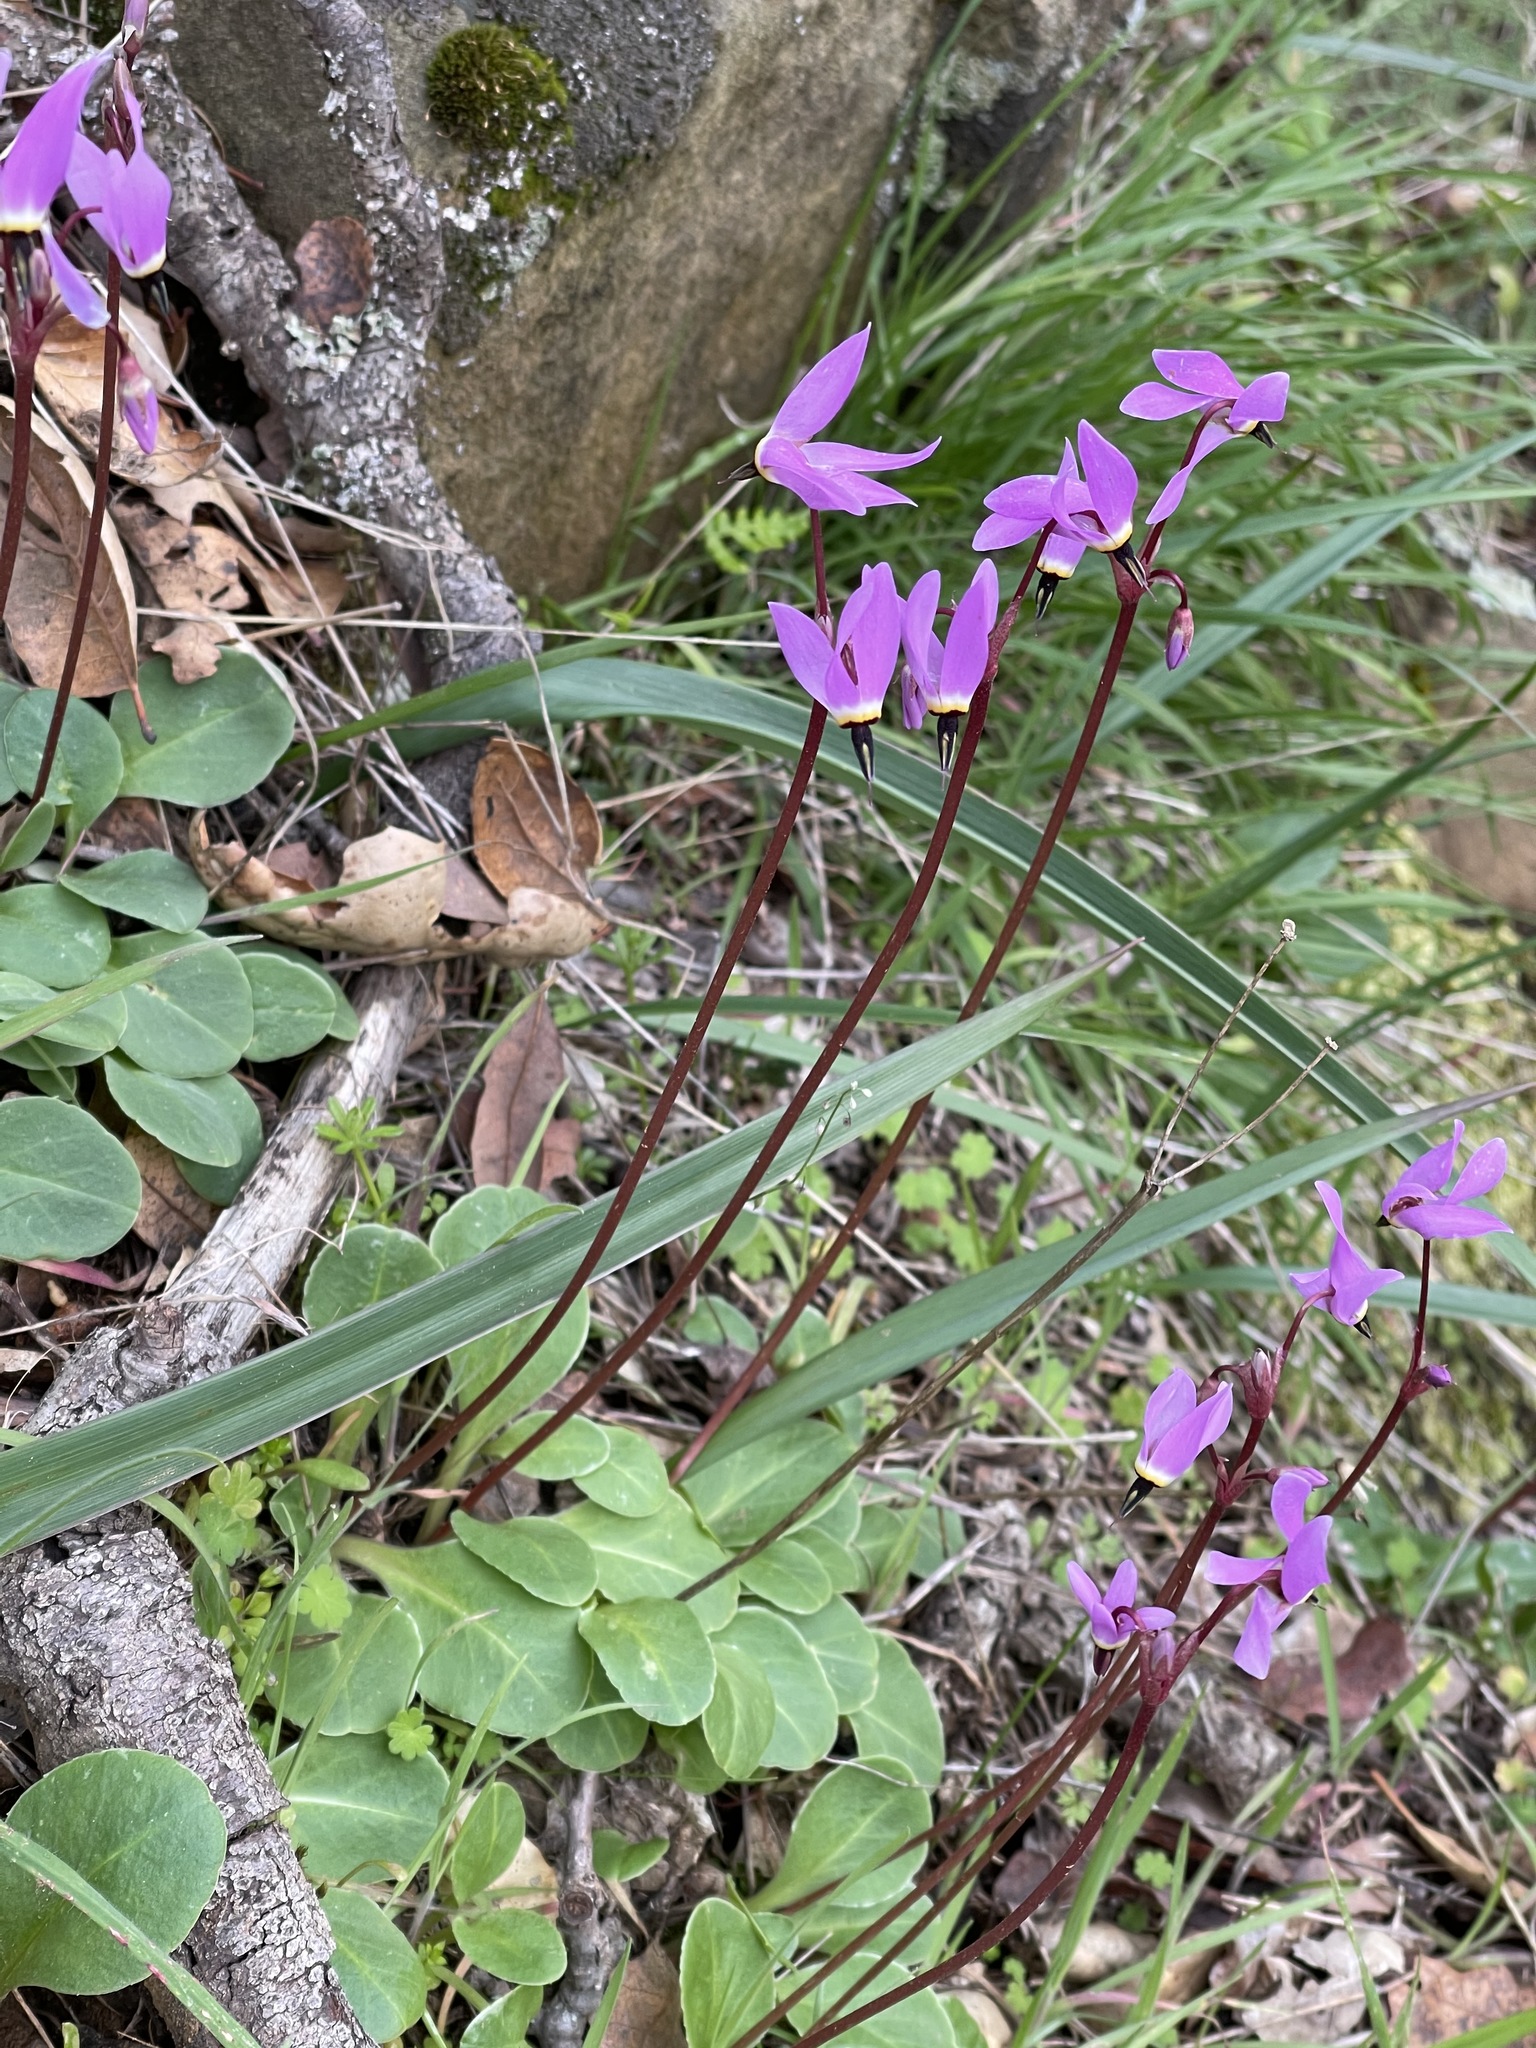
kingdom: Plantae
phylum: Tracheophyta
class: Magnoliopsida
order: Ericales
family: Primulaceae
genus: Dodecatheon
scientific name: Dodecatheon hendersonii
